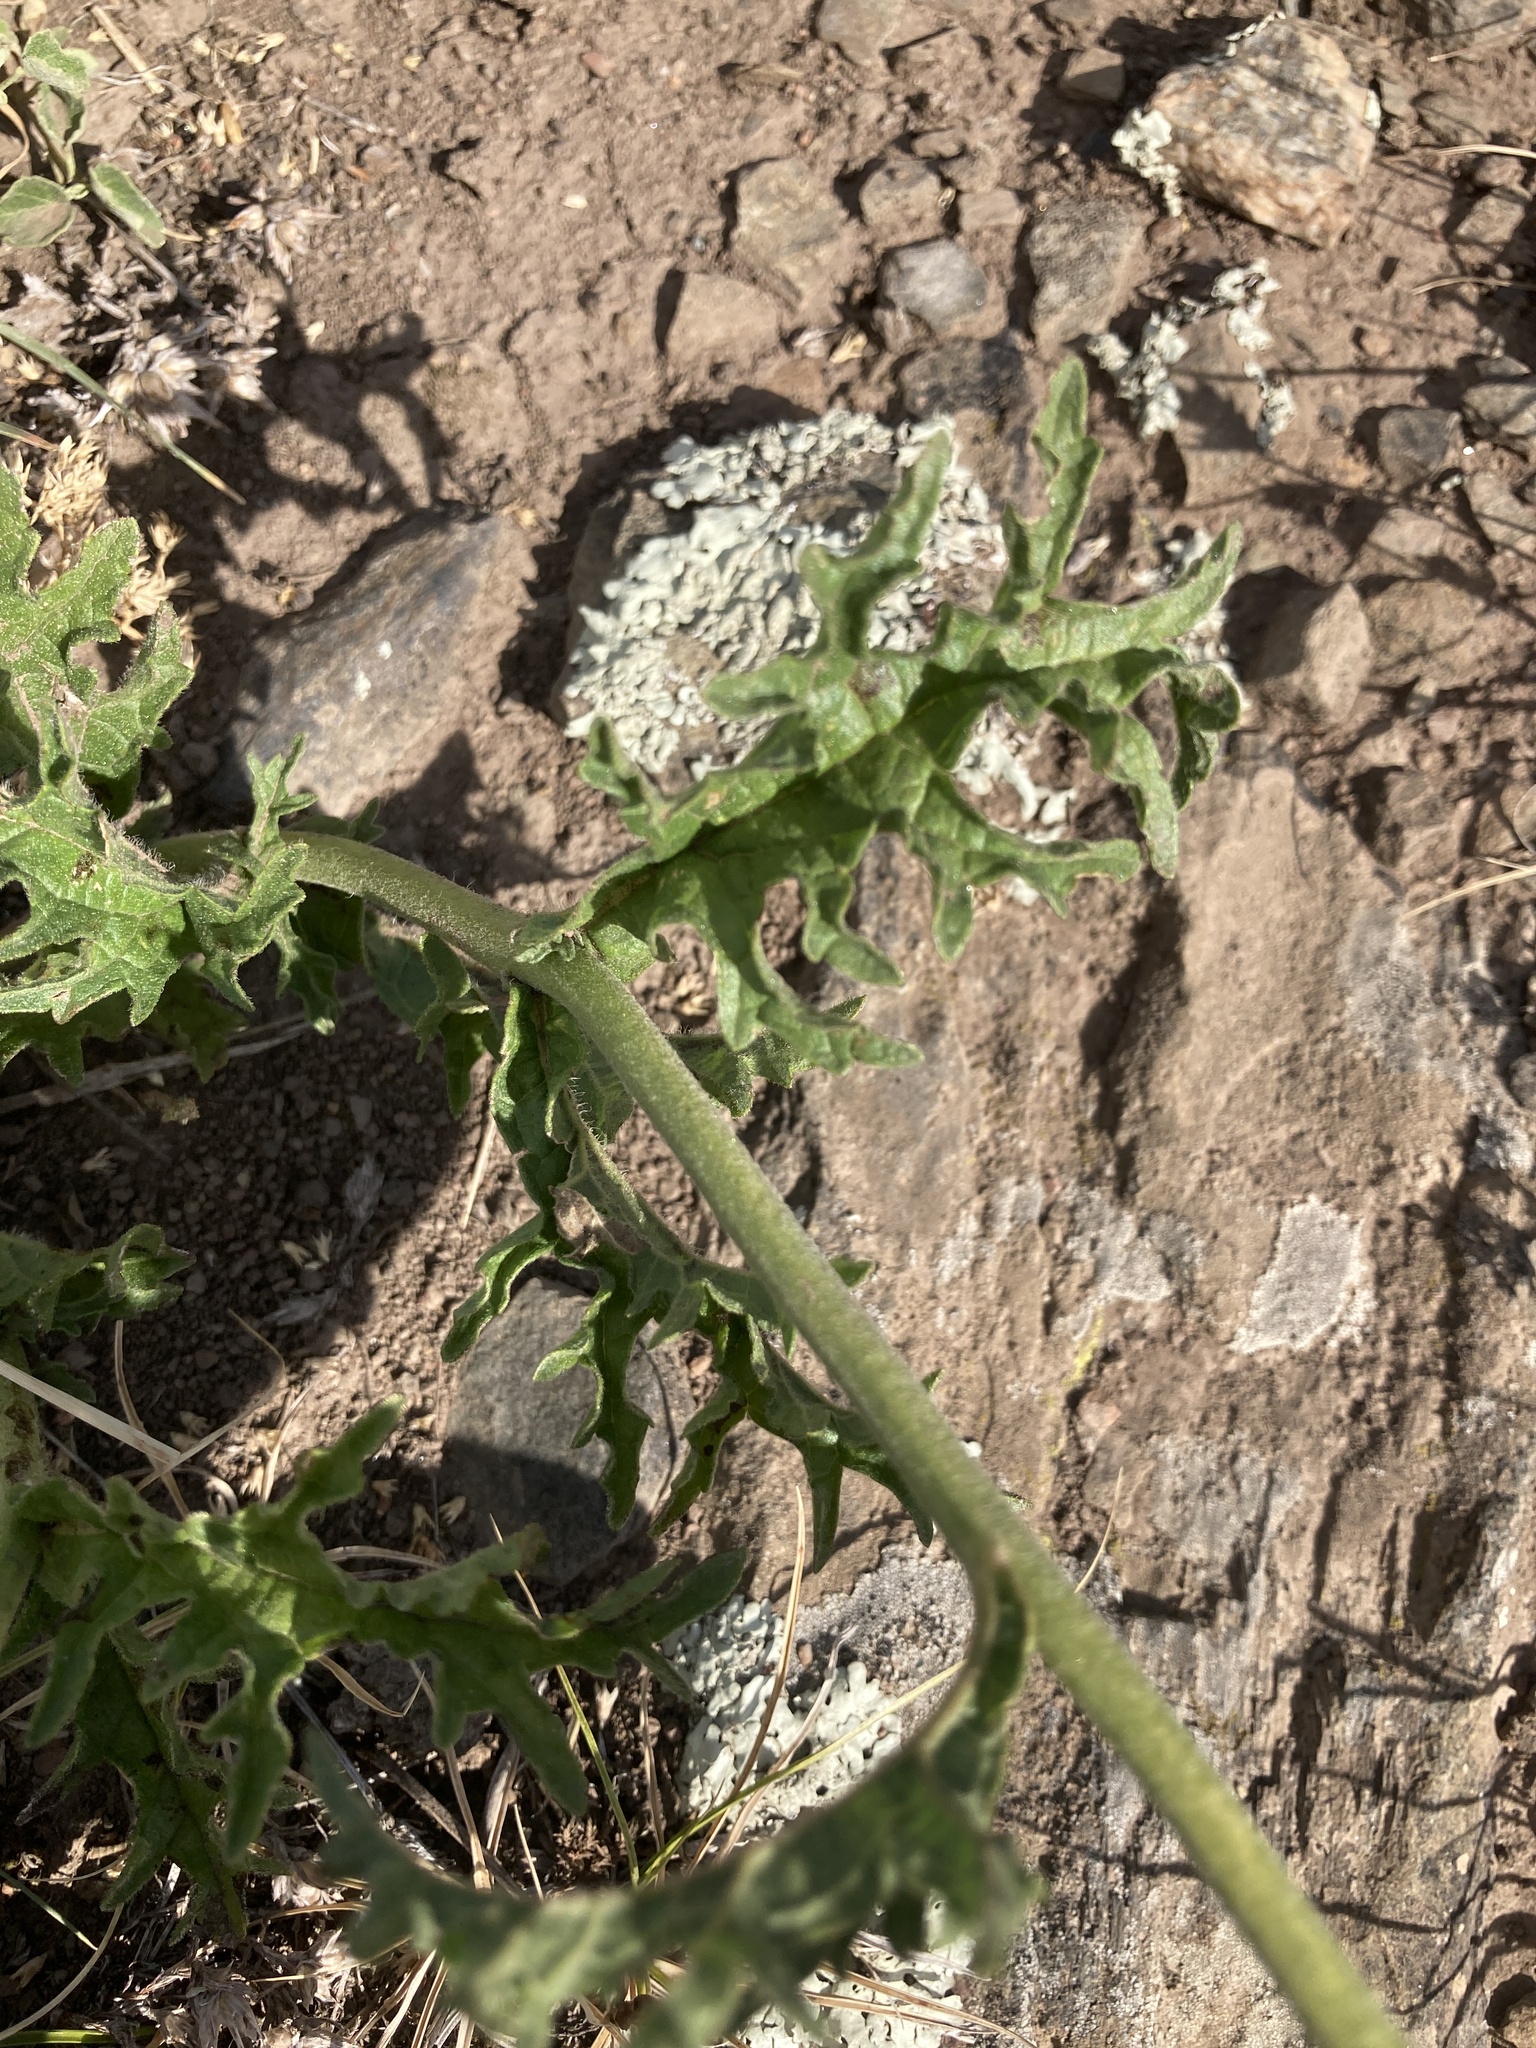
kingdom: Plantae
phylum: Tracheophyta
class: Magnoliopsida
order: Asterales
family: Asteraceae
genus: Gyptis
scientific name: Gyptis tanacetifolia
